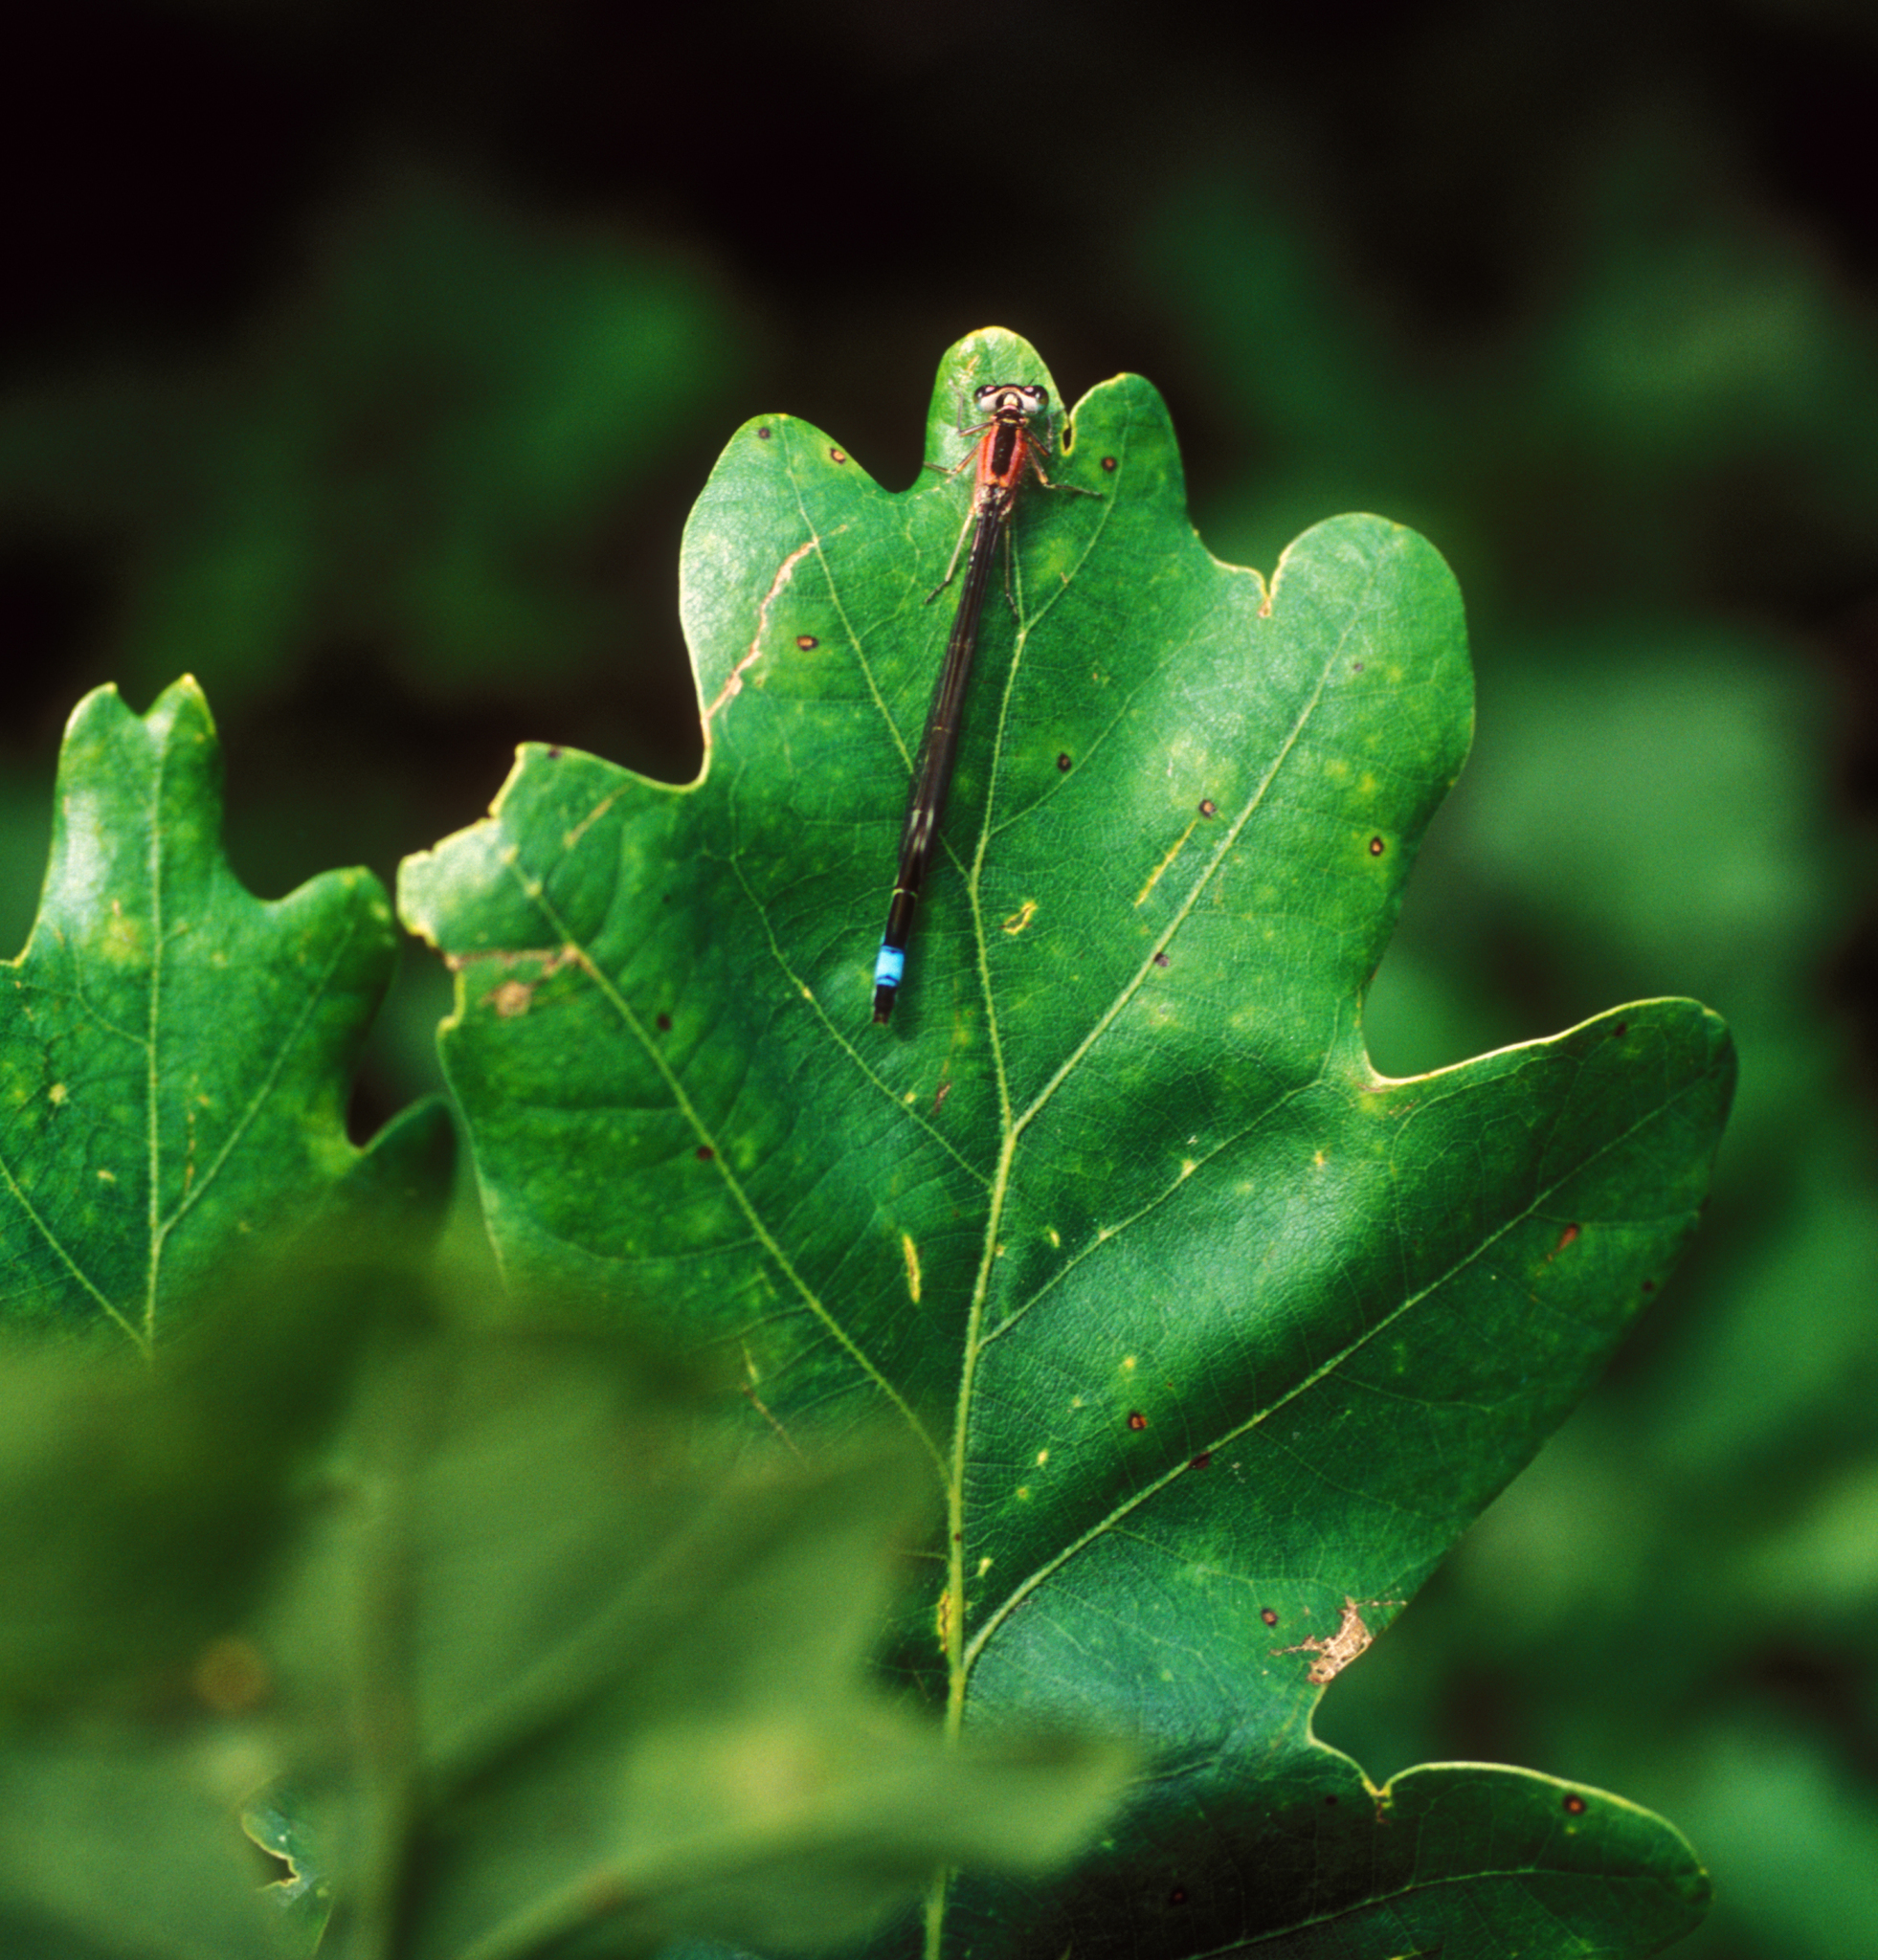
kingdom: Plantae
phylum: Tracheophyta
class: Magnoliopsida
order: Fagales
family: Fagaceae
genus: Quercus
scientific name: Quercus robur
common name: Pedunculate oak
